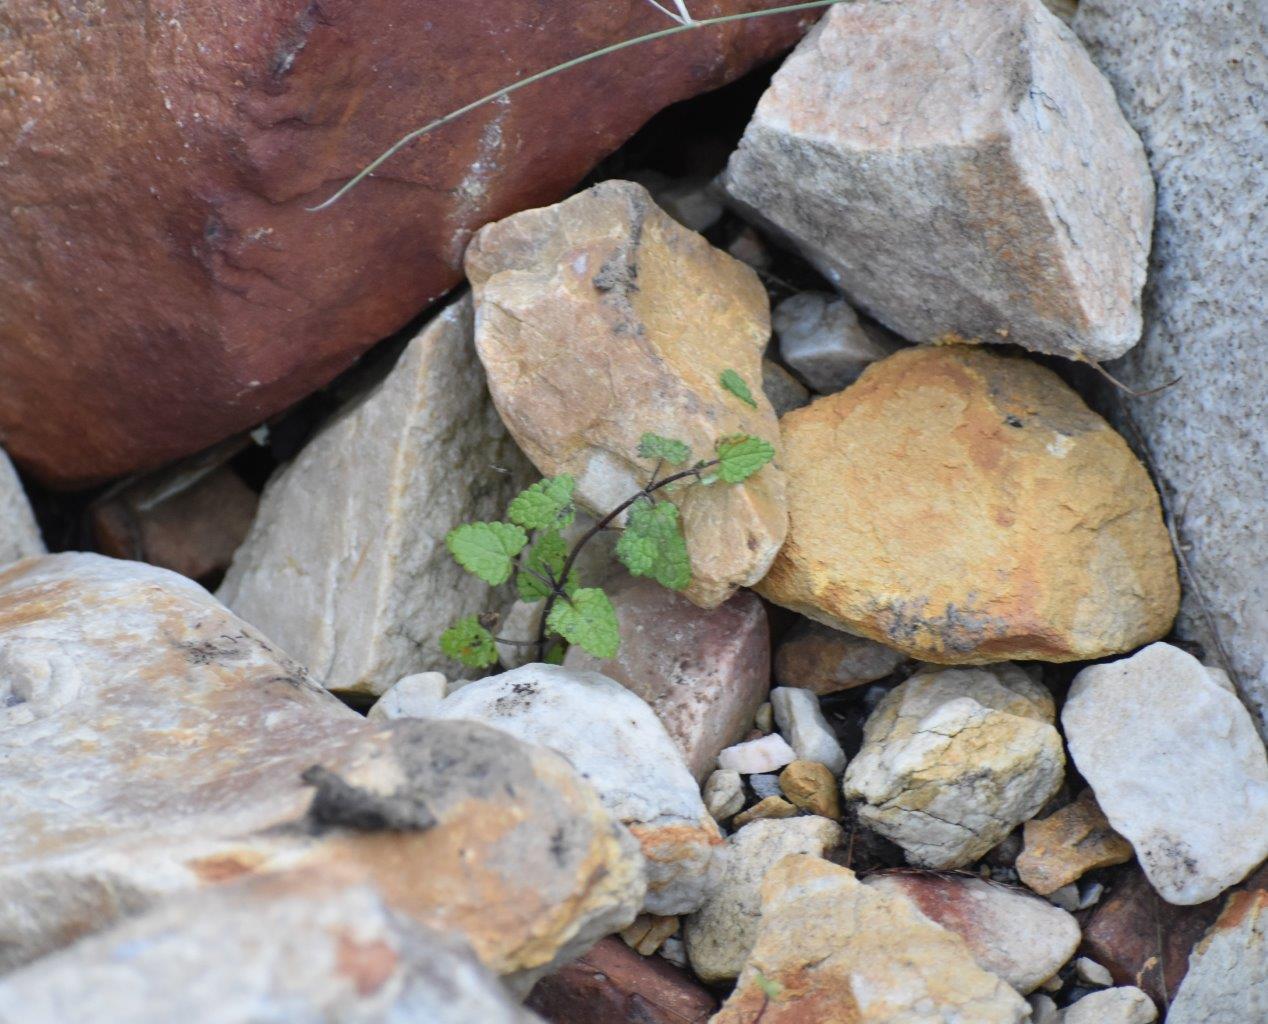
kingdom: Plantae
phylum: Tracheophyta
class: Magnoliopsida
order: Lamiales
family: Lamiaceae
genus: Stachys
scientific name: Stachys aethiopica
